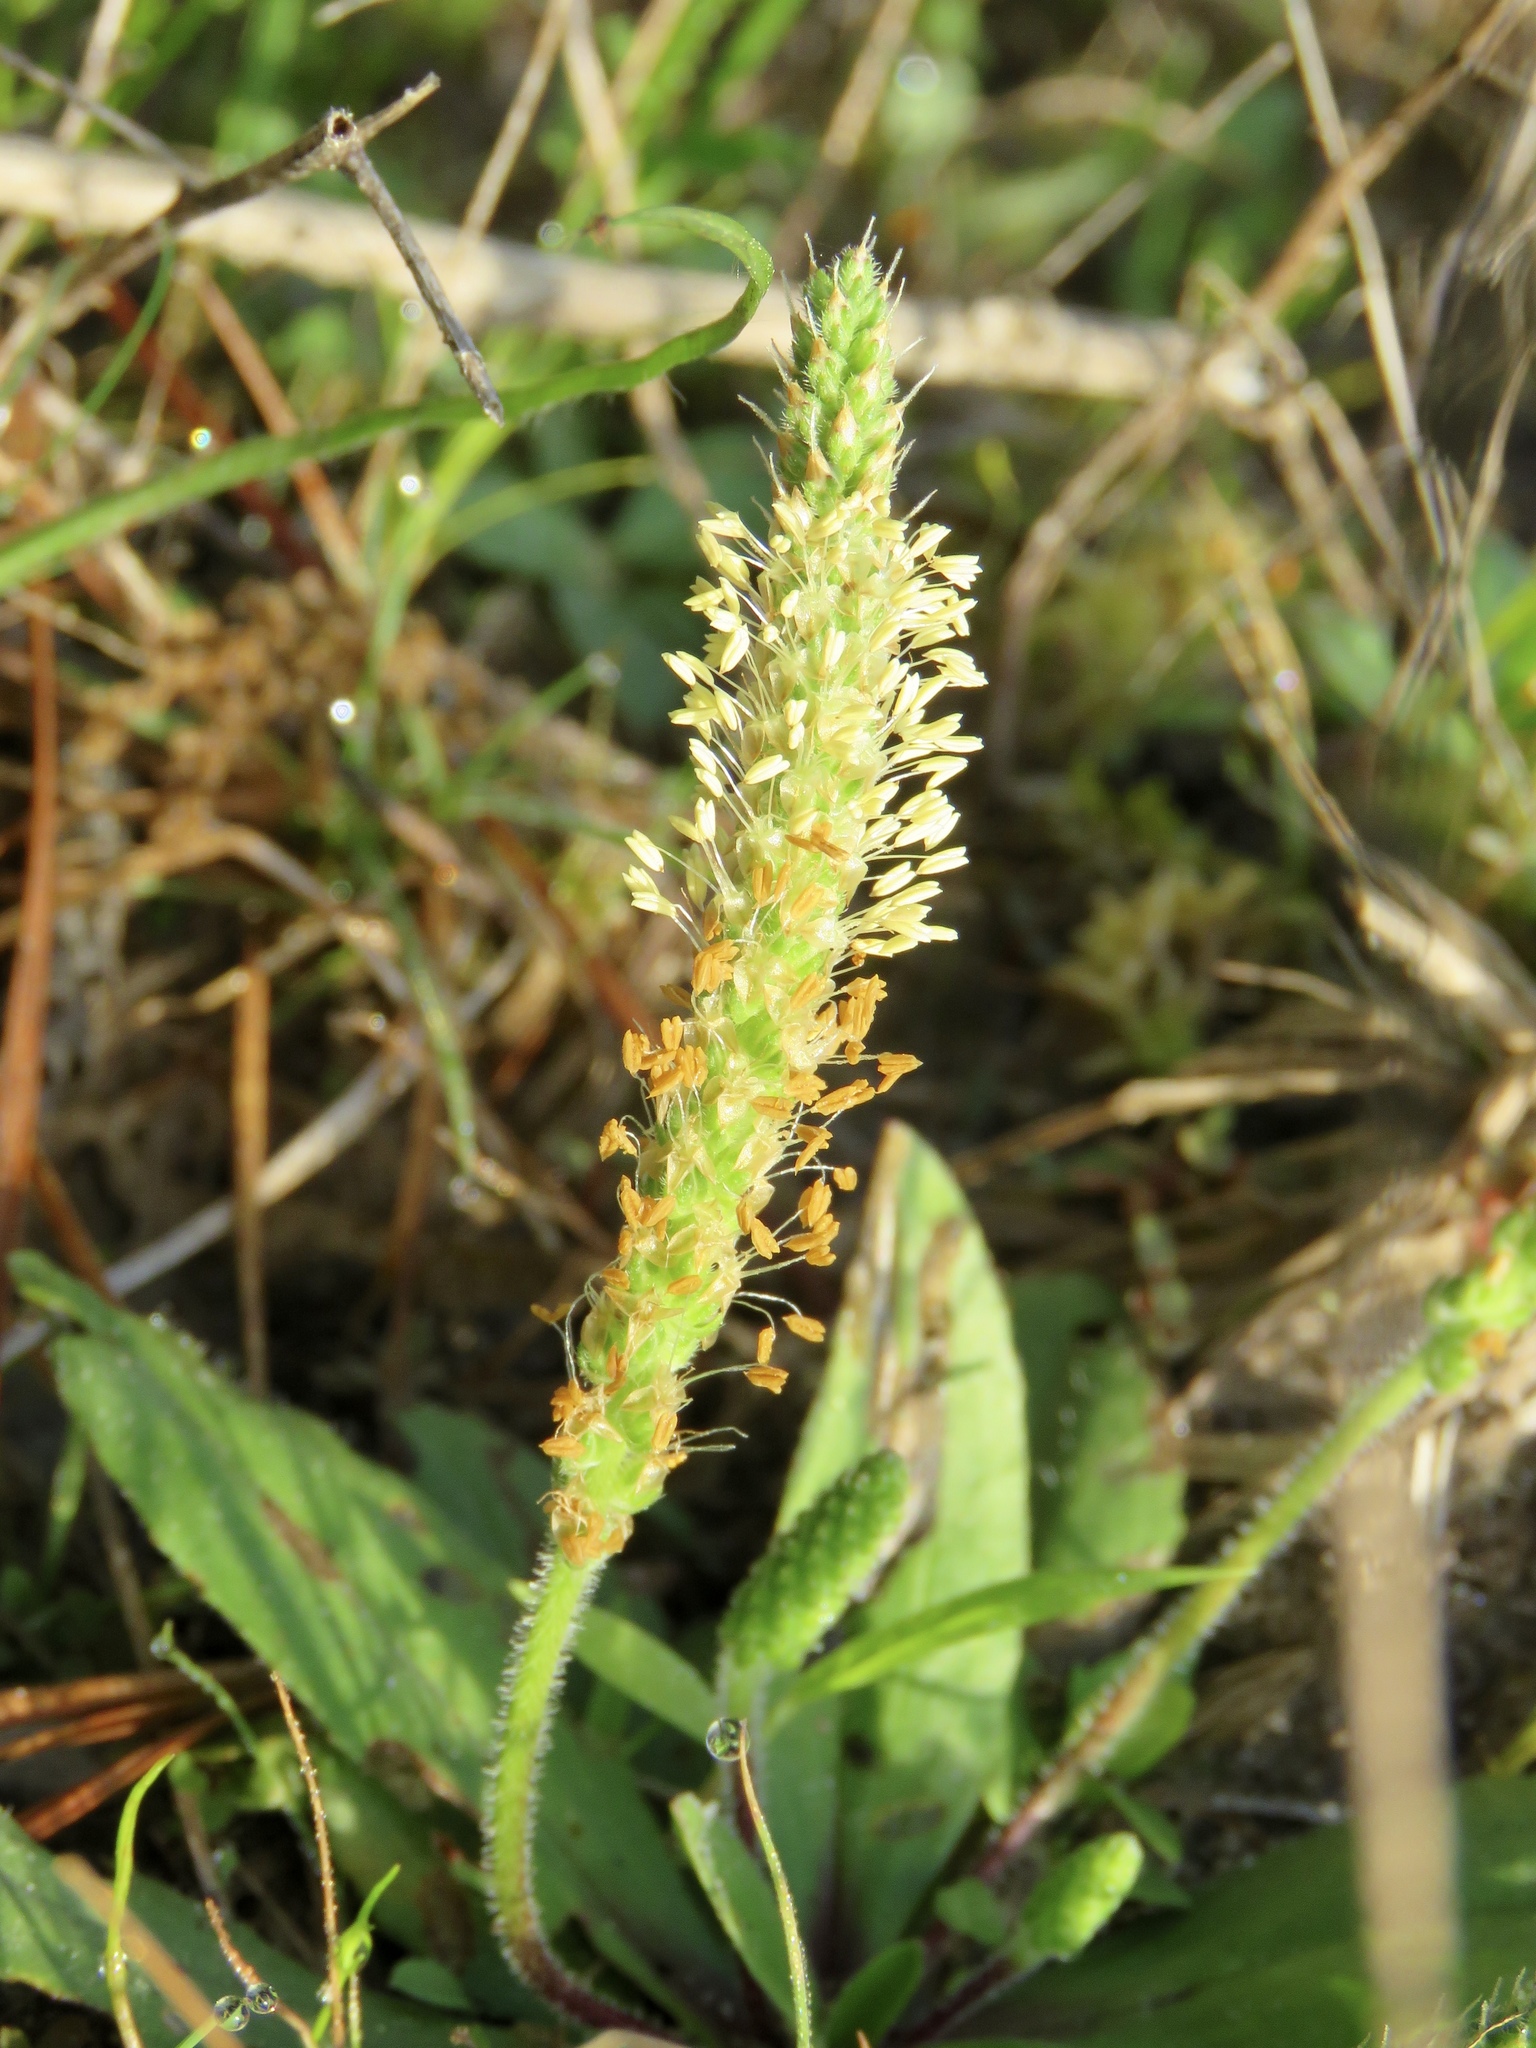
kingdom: Plantae
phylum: Tracheophyta
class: Magnoliopsida
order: Lamiales
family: Plantaginaceae
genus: Plantago
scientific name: Plantago virginica
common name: Hoary plantain
